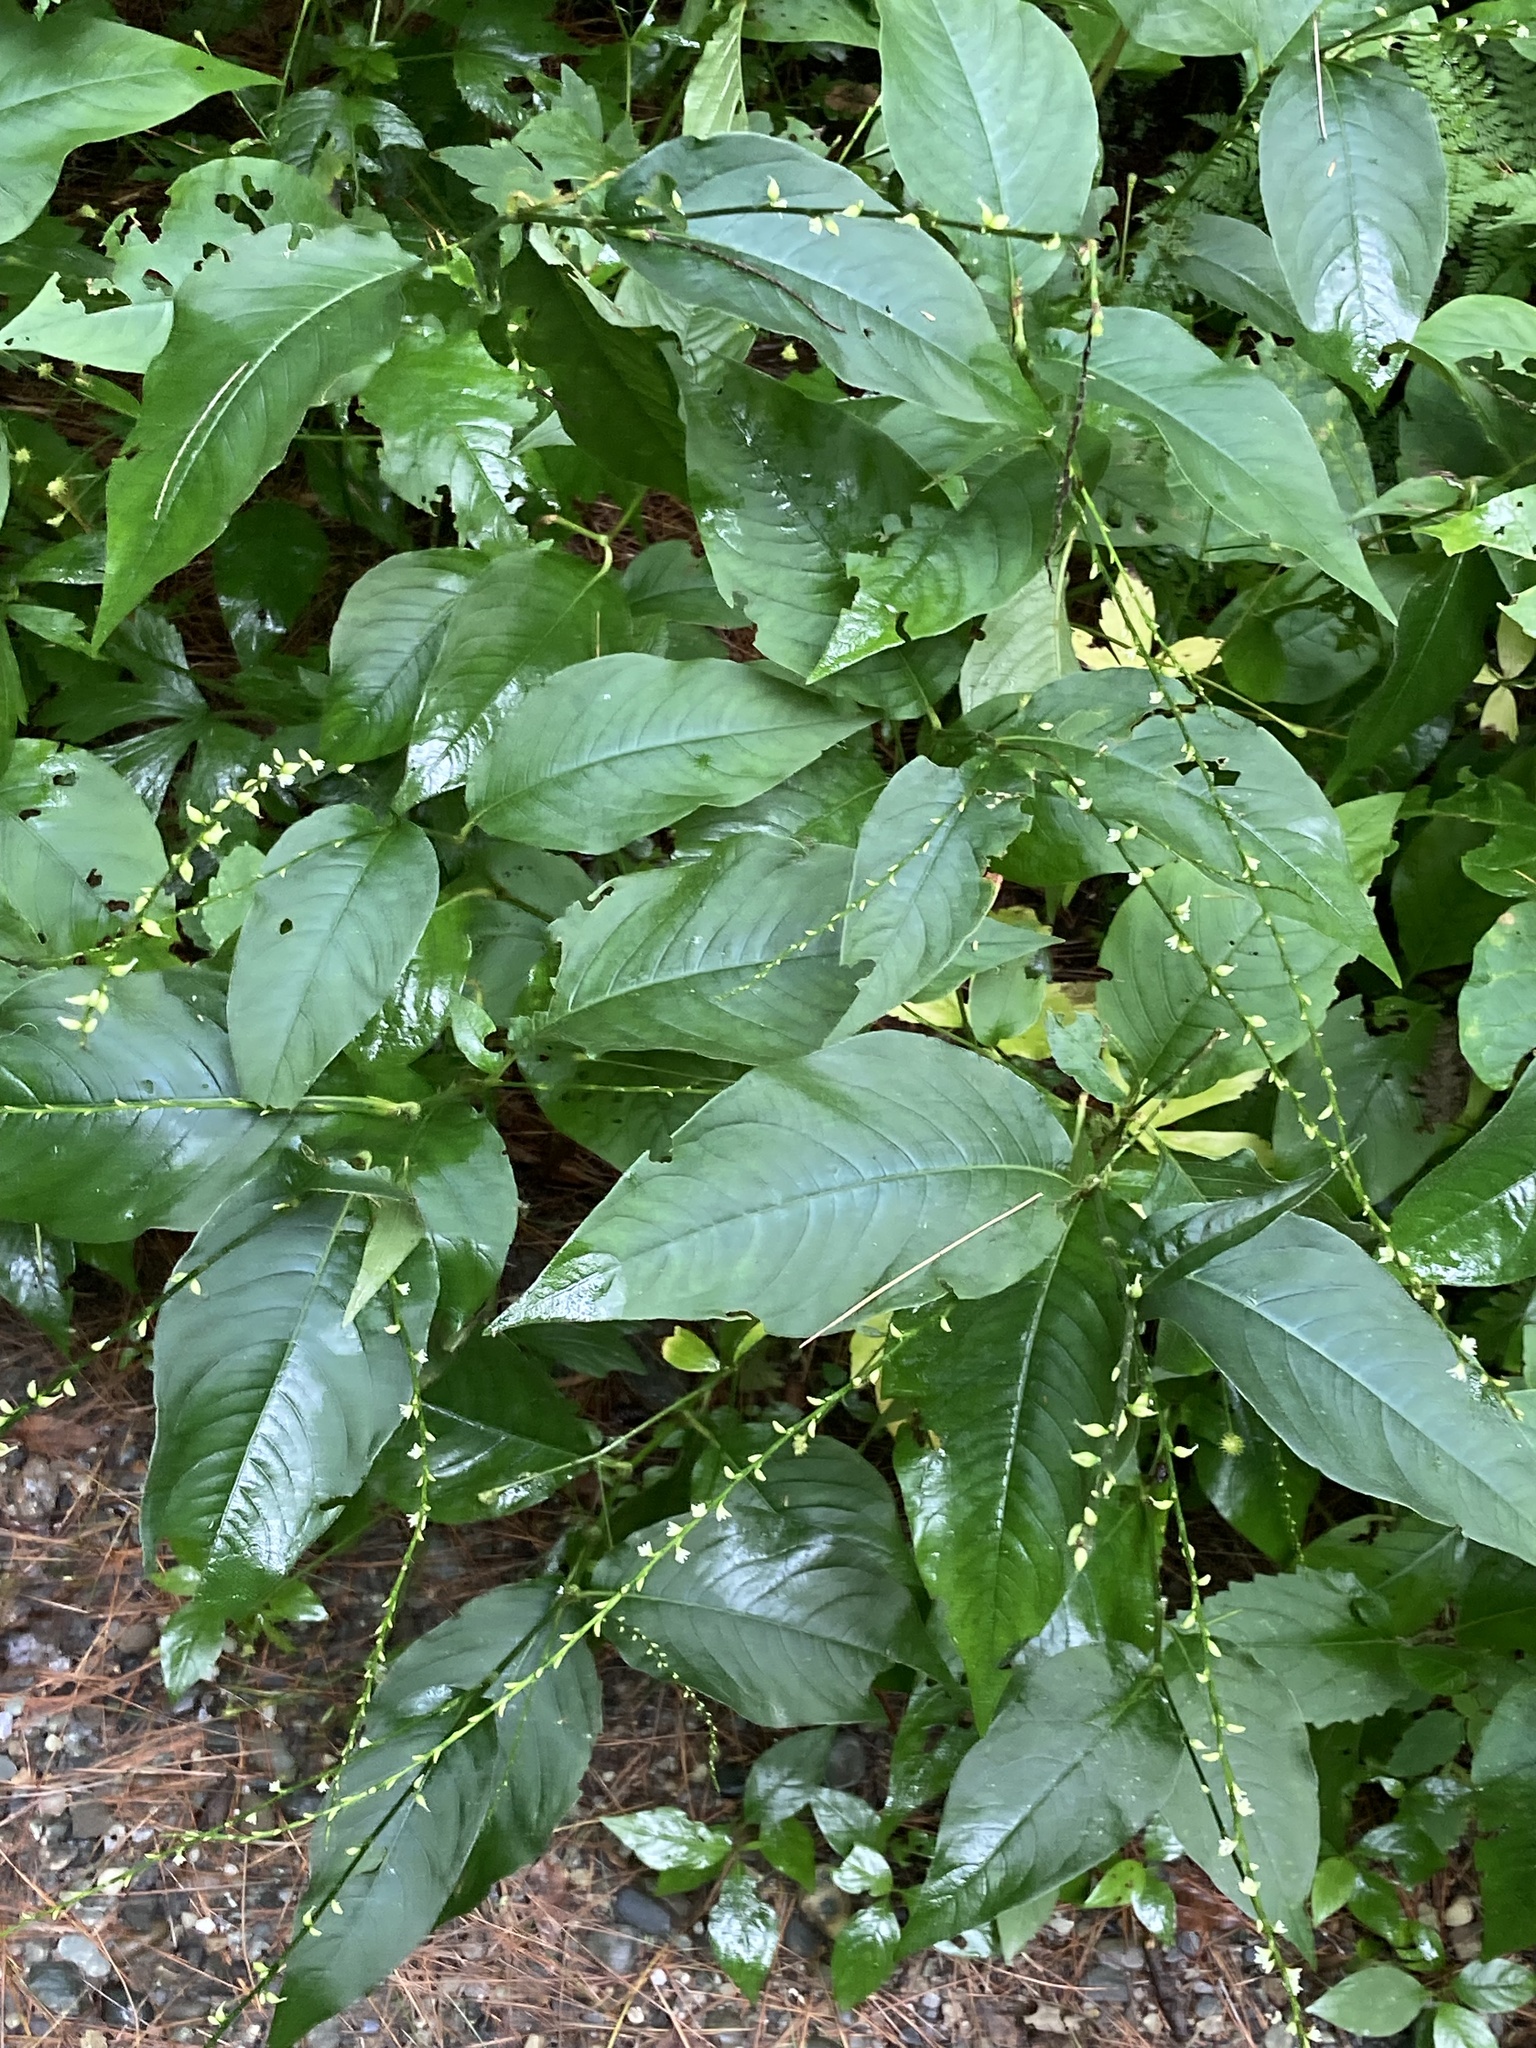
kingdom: Plantae
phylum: Tracheophyta
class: Magnoliopsida
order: Caryophyllales
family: Polygonaceae
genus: Persicaria
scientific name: Persicaria virginiana
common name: Jumpseed
